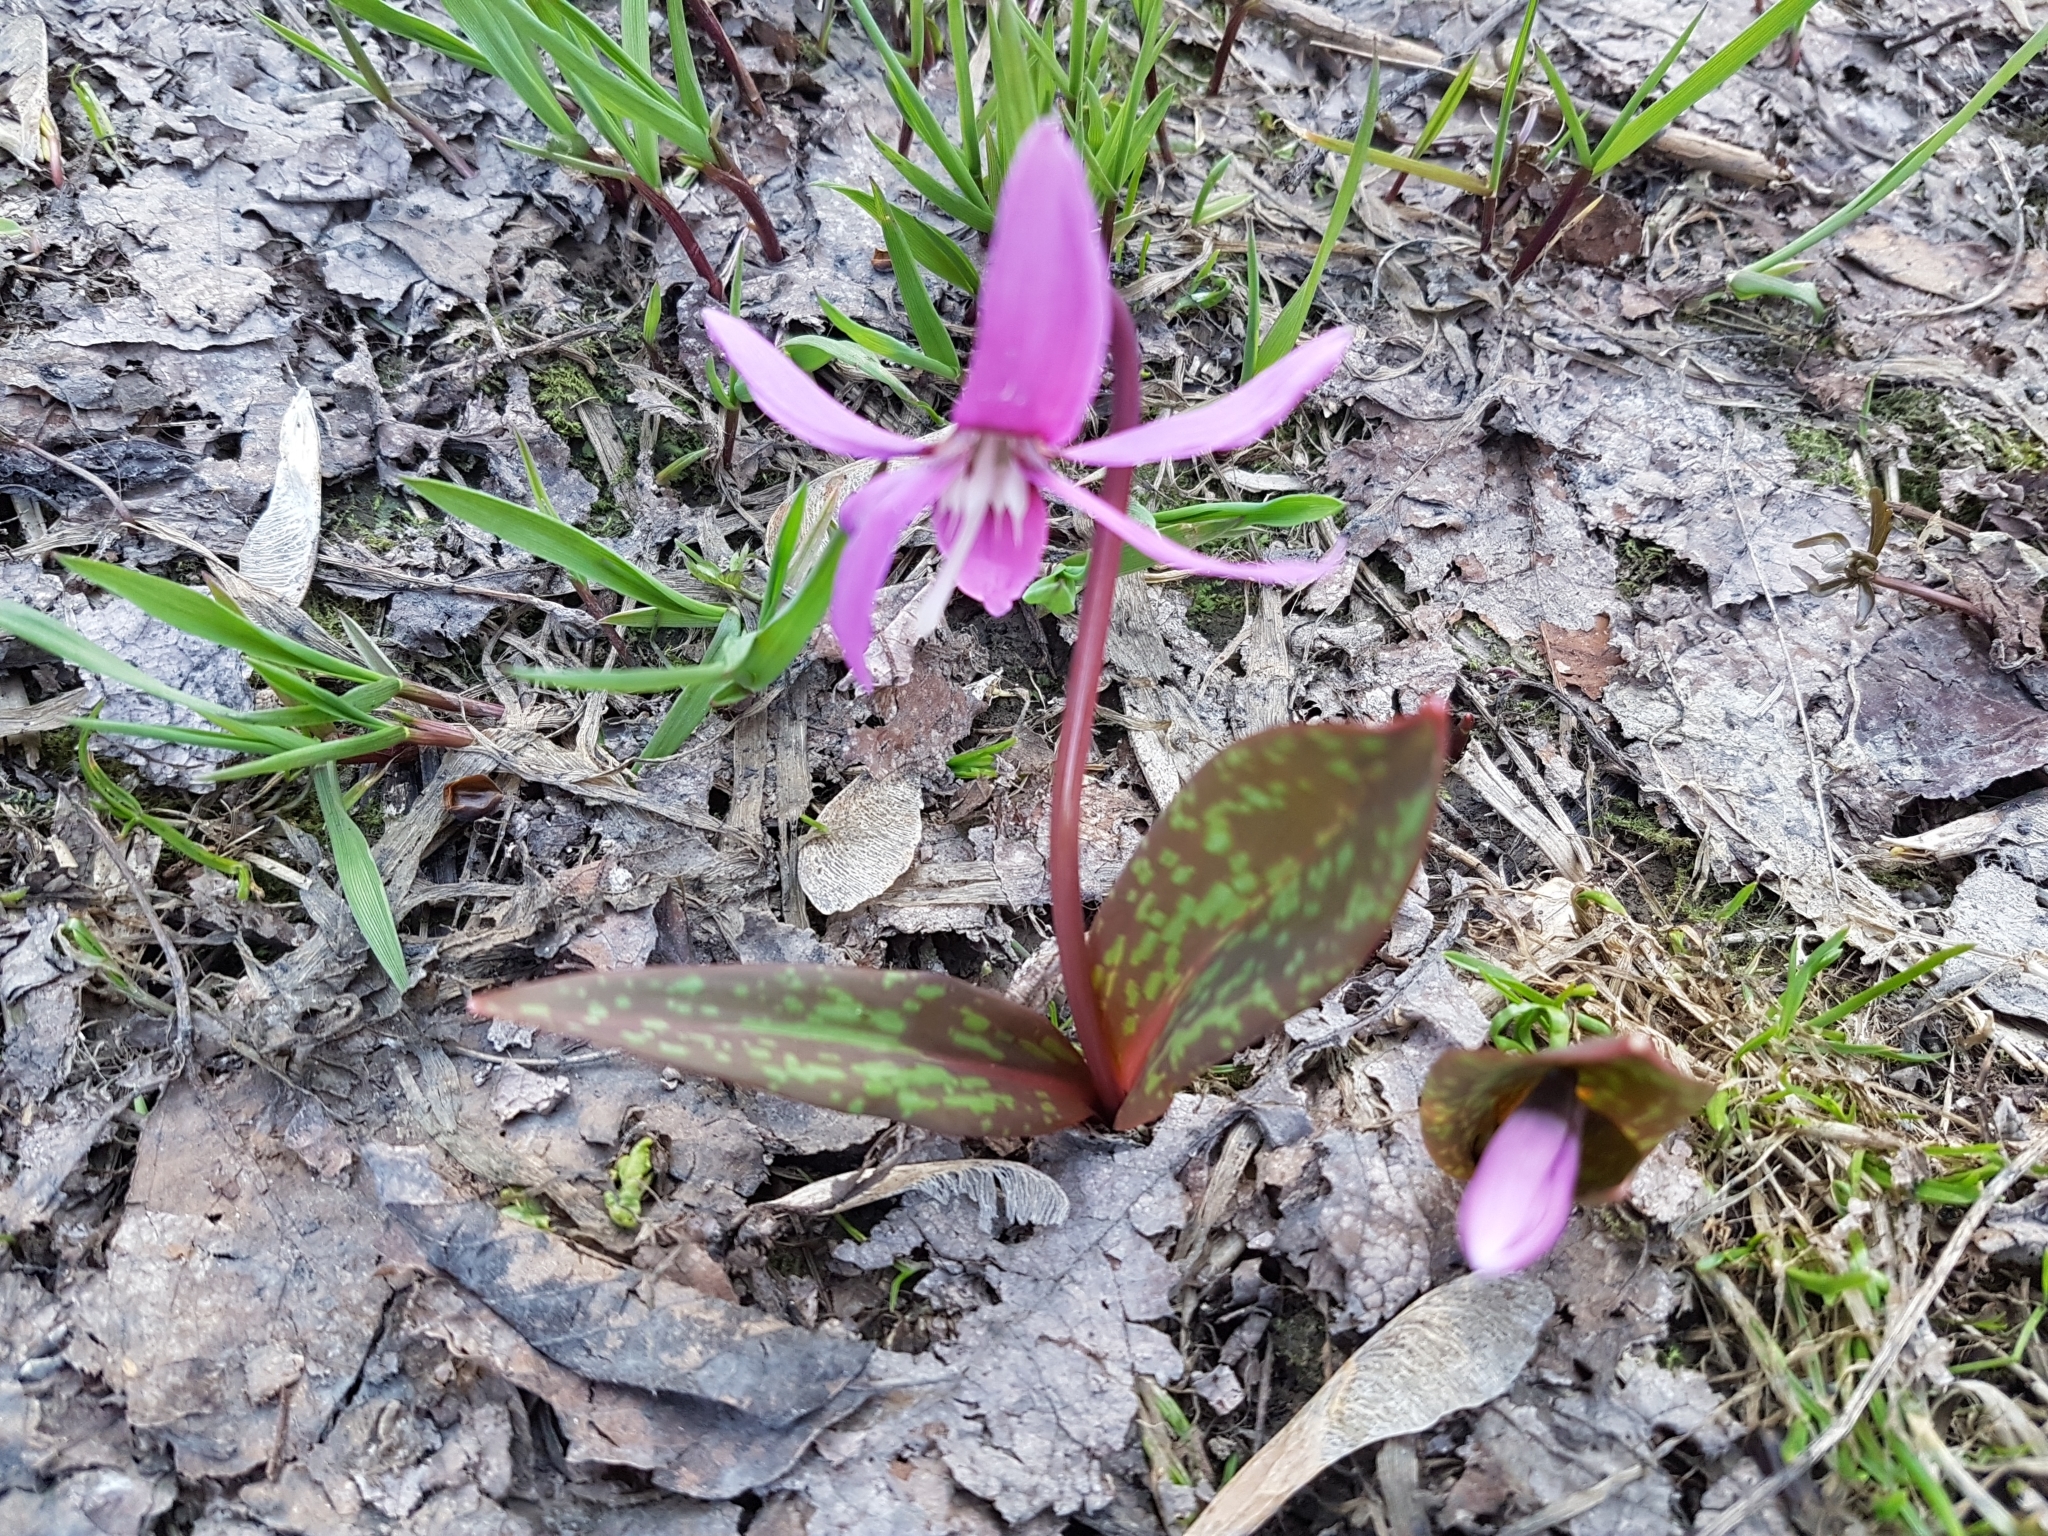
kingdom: Plantae
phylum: Tracheophyta
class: Liliopsida
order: Liliales
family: Liliaceae
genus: Erythronium
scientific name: Erythronium sibiricum
